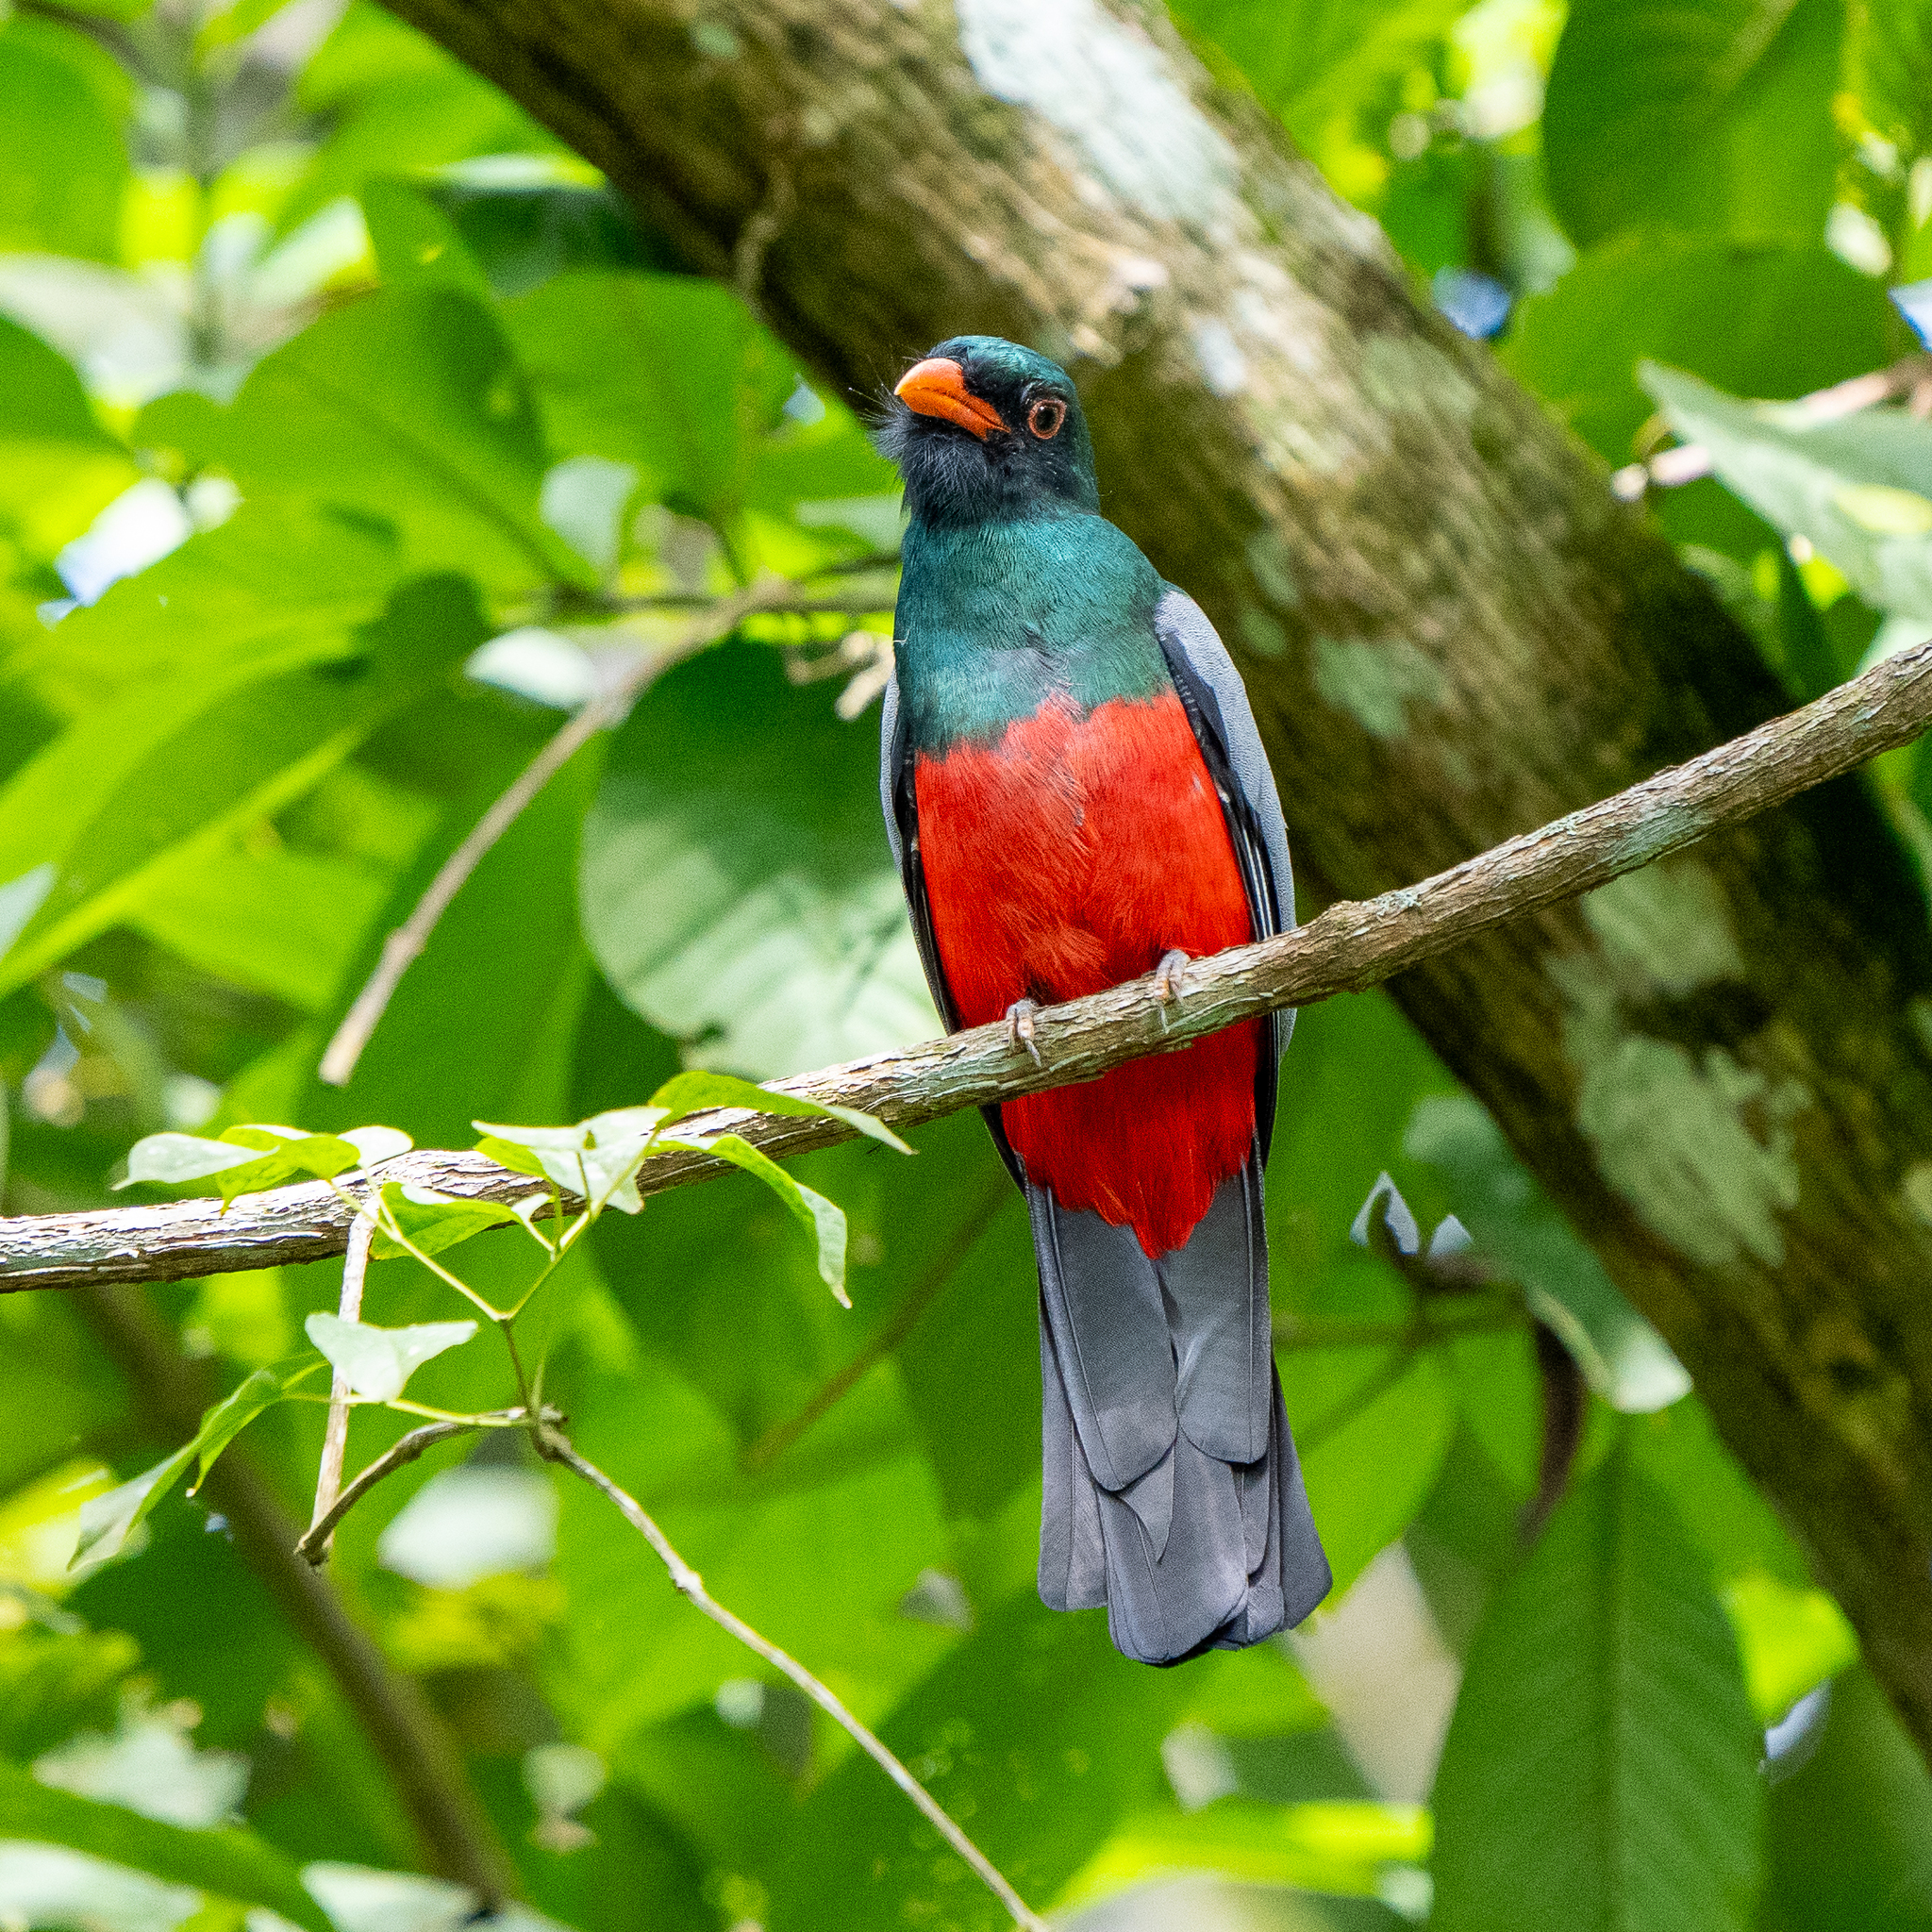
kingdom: Animalia
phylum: Chordata
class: Aves
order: Trogoniformes
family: Trogonidae
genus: Trogon
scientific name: Trogon massena
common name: Slaty-tailed trogon
